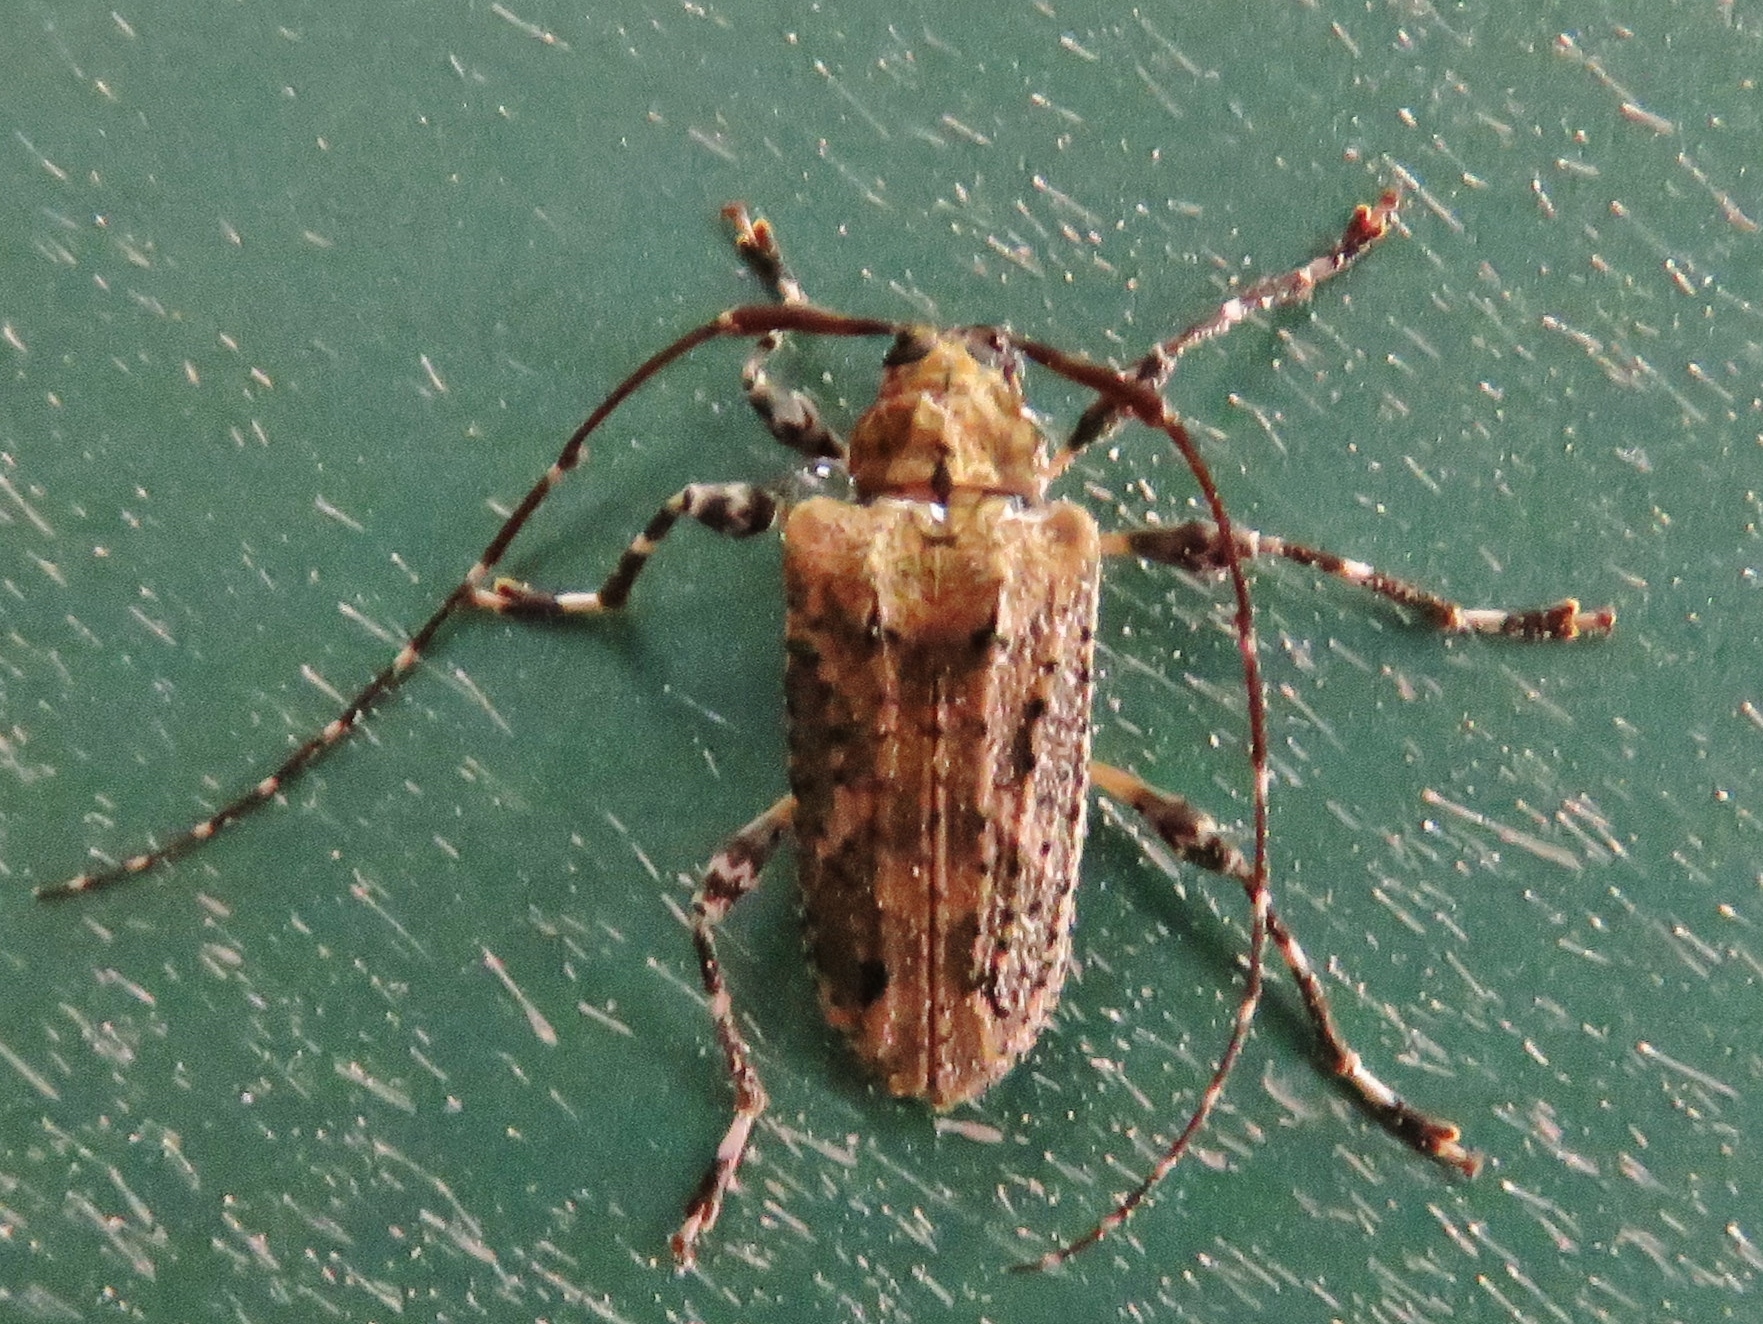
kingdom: Animalia
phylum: Arthropoda
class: Insecta
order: Coleoptera
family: Cerambycidae
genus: Nealcidion
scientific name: Nealcidion emeritum
